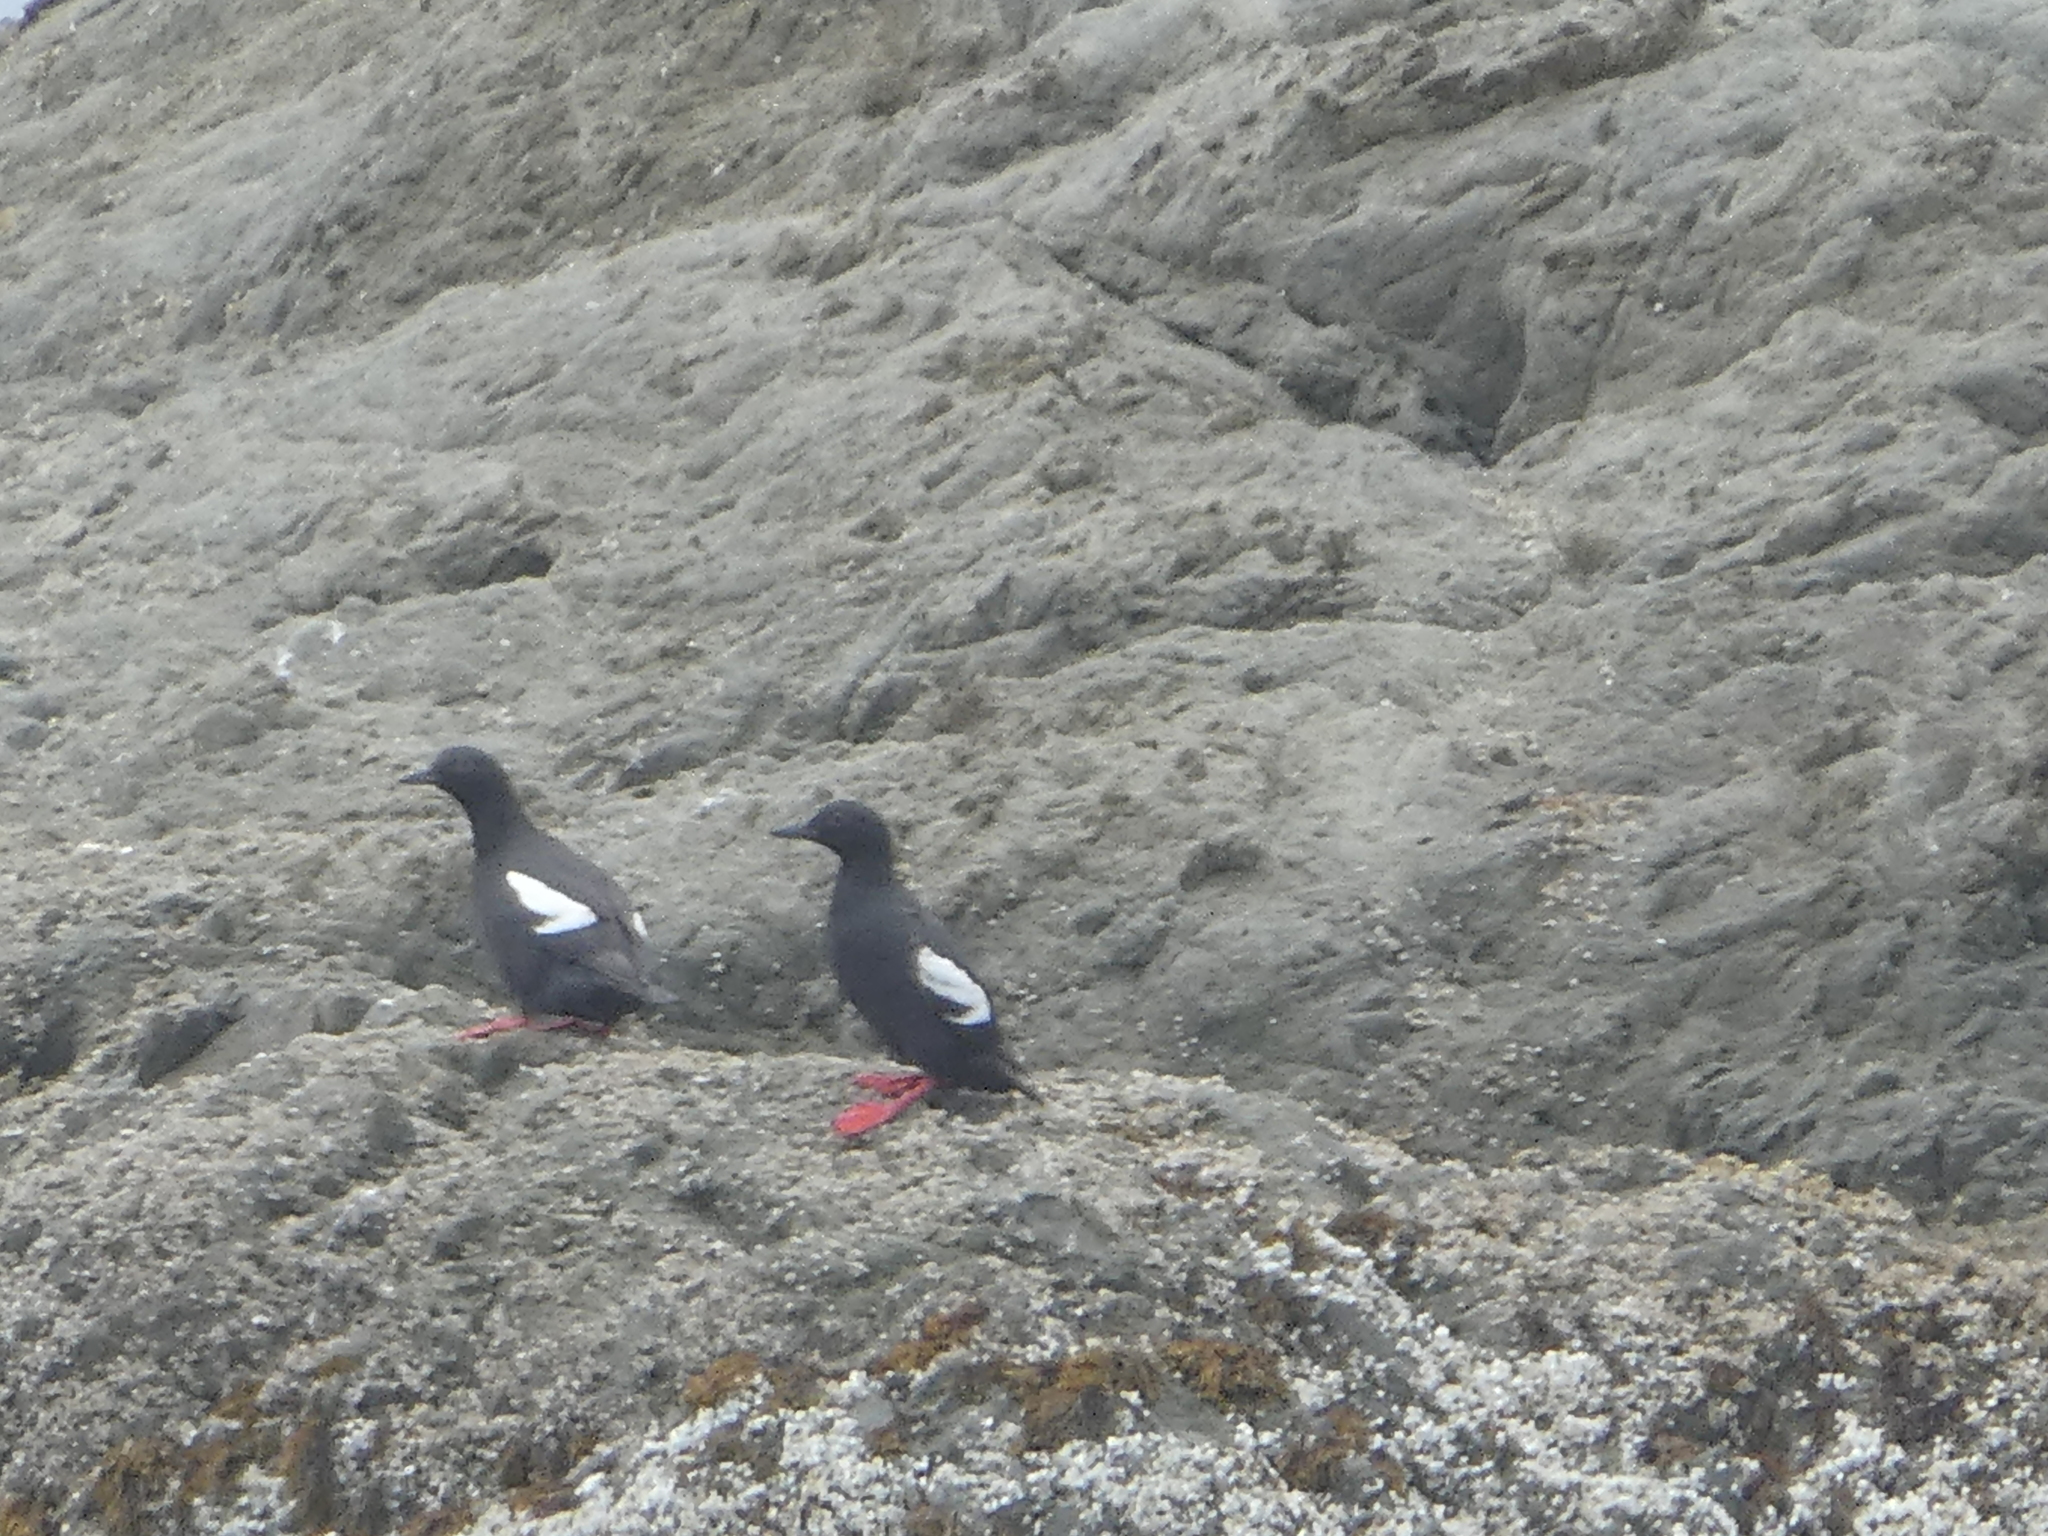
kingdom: Animalia
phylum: Chordata
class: Aves
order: Charadriiformes
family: Alcidae
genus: Cepphus
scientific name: Cepphus columba
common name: Pigeon guillemot
